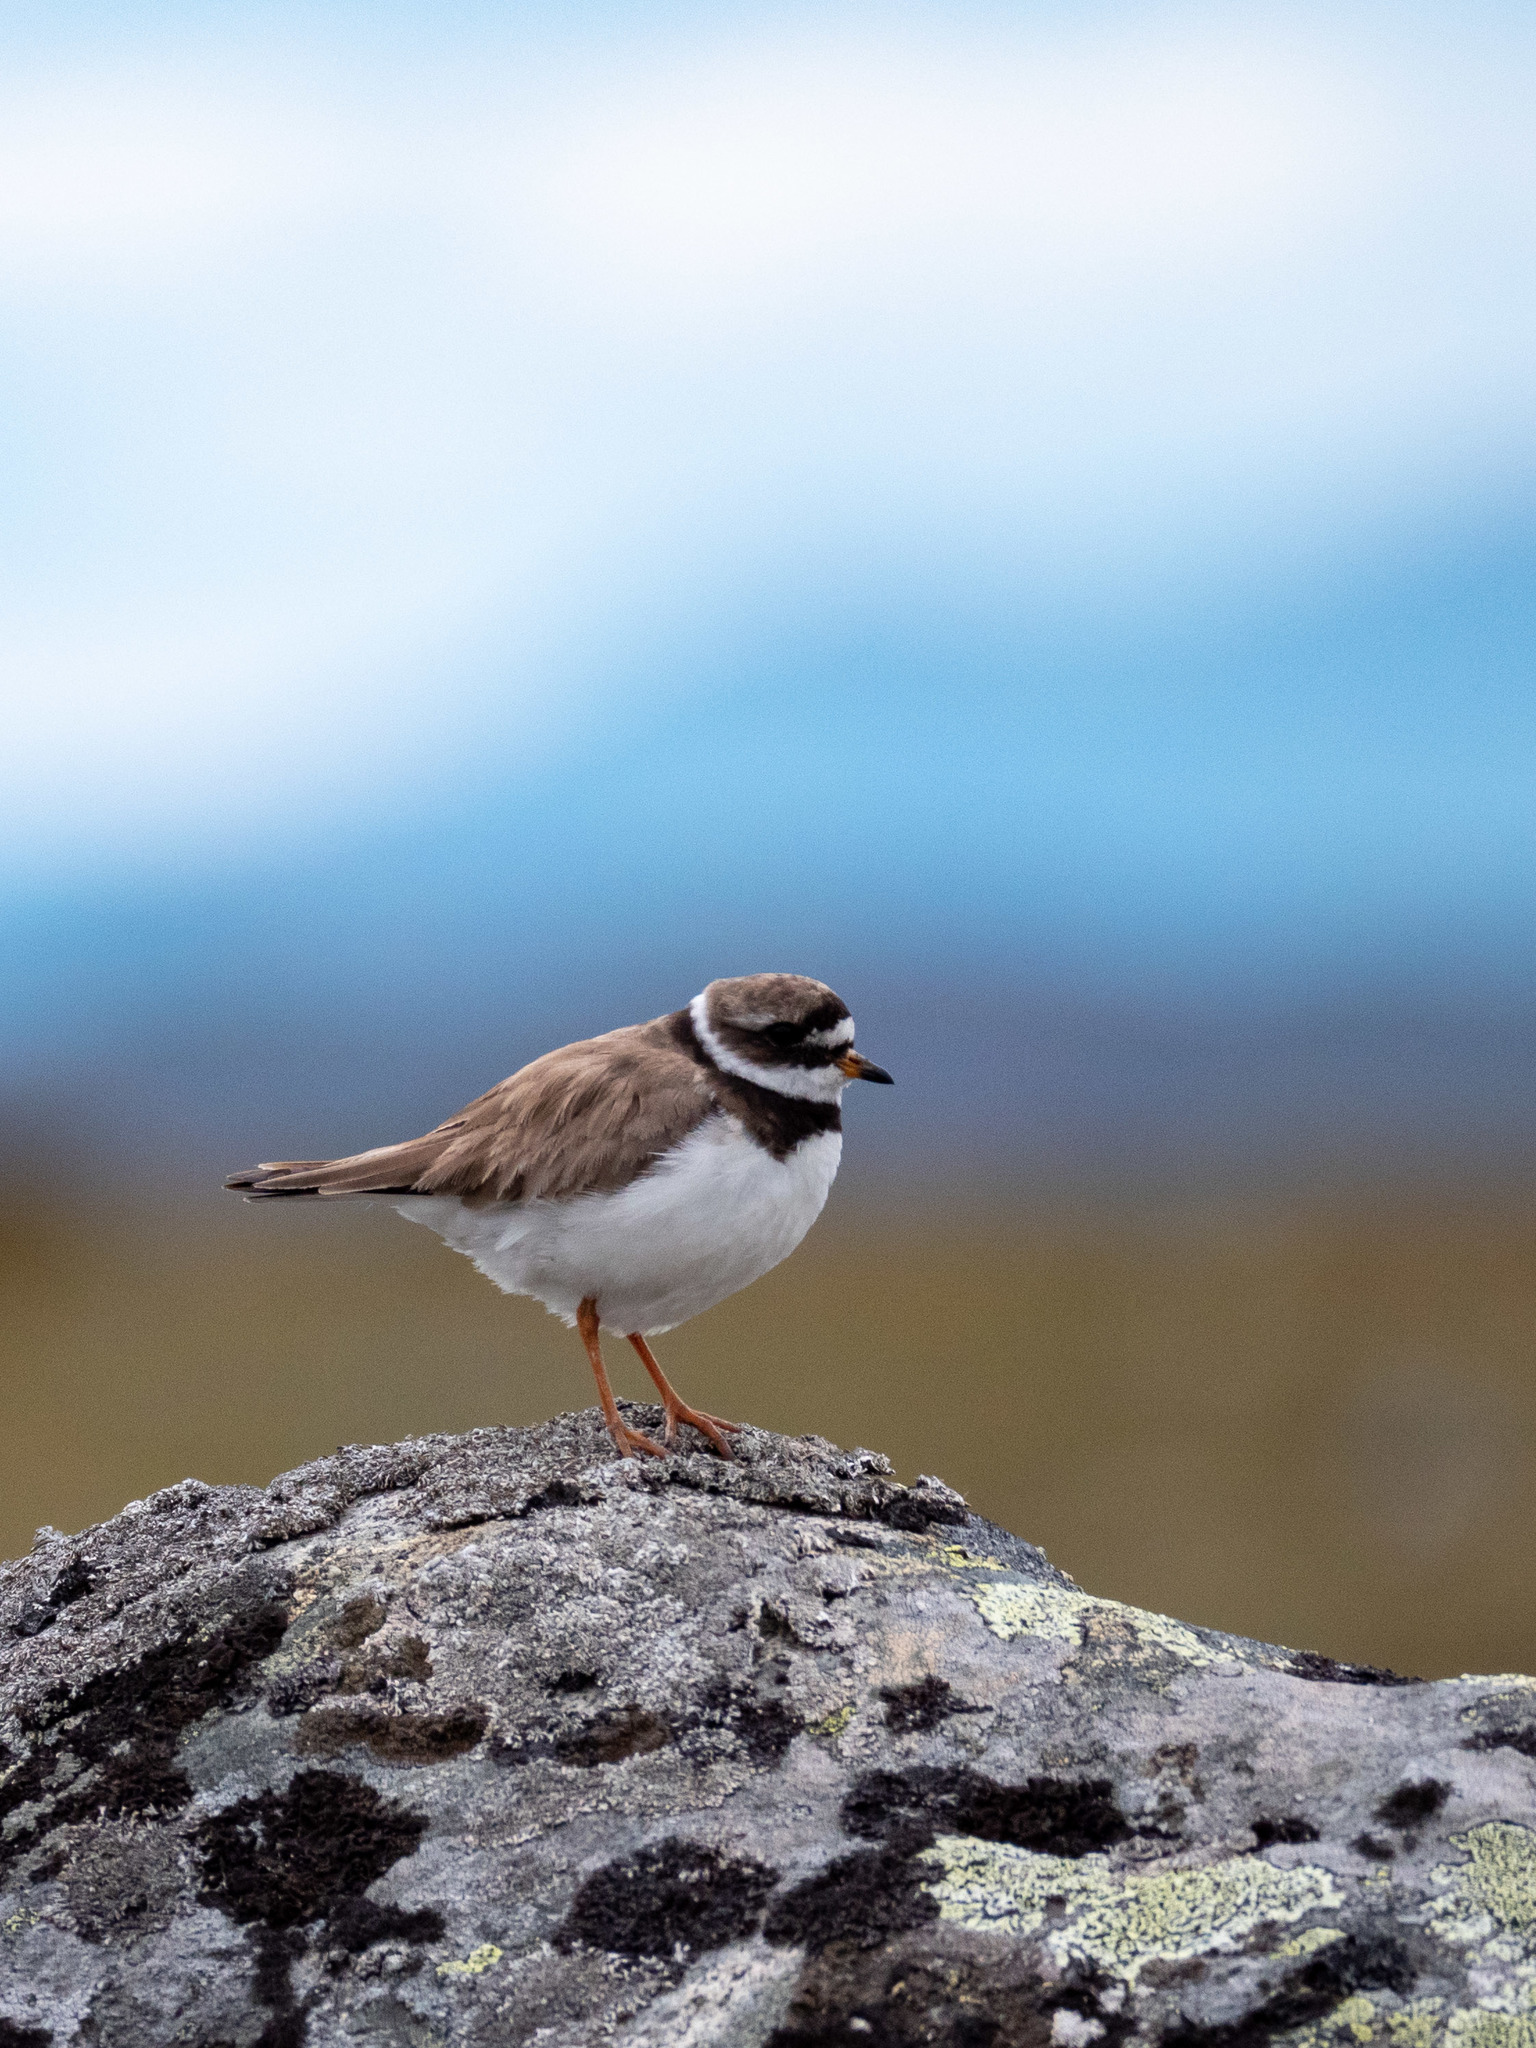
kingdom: Animalia
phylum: Chordata
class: Aves
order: Charadriiformes
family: Charadriidae
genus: Charadrius
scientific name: Charadrius hiaticula
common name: Common ringed plover
